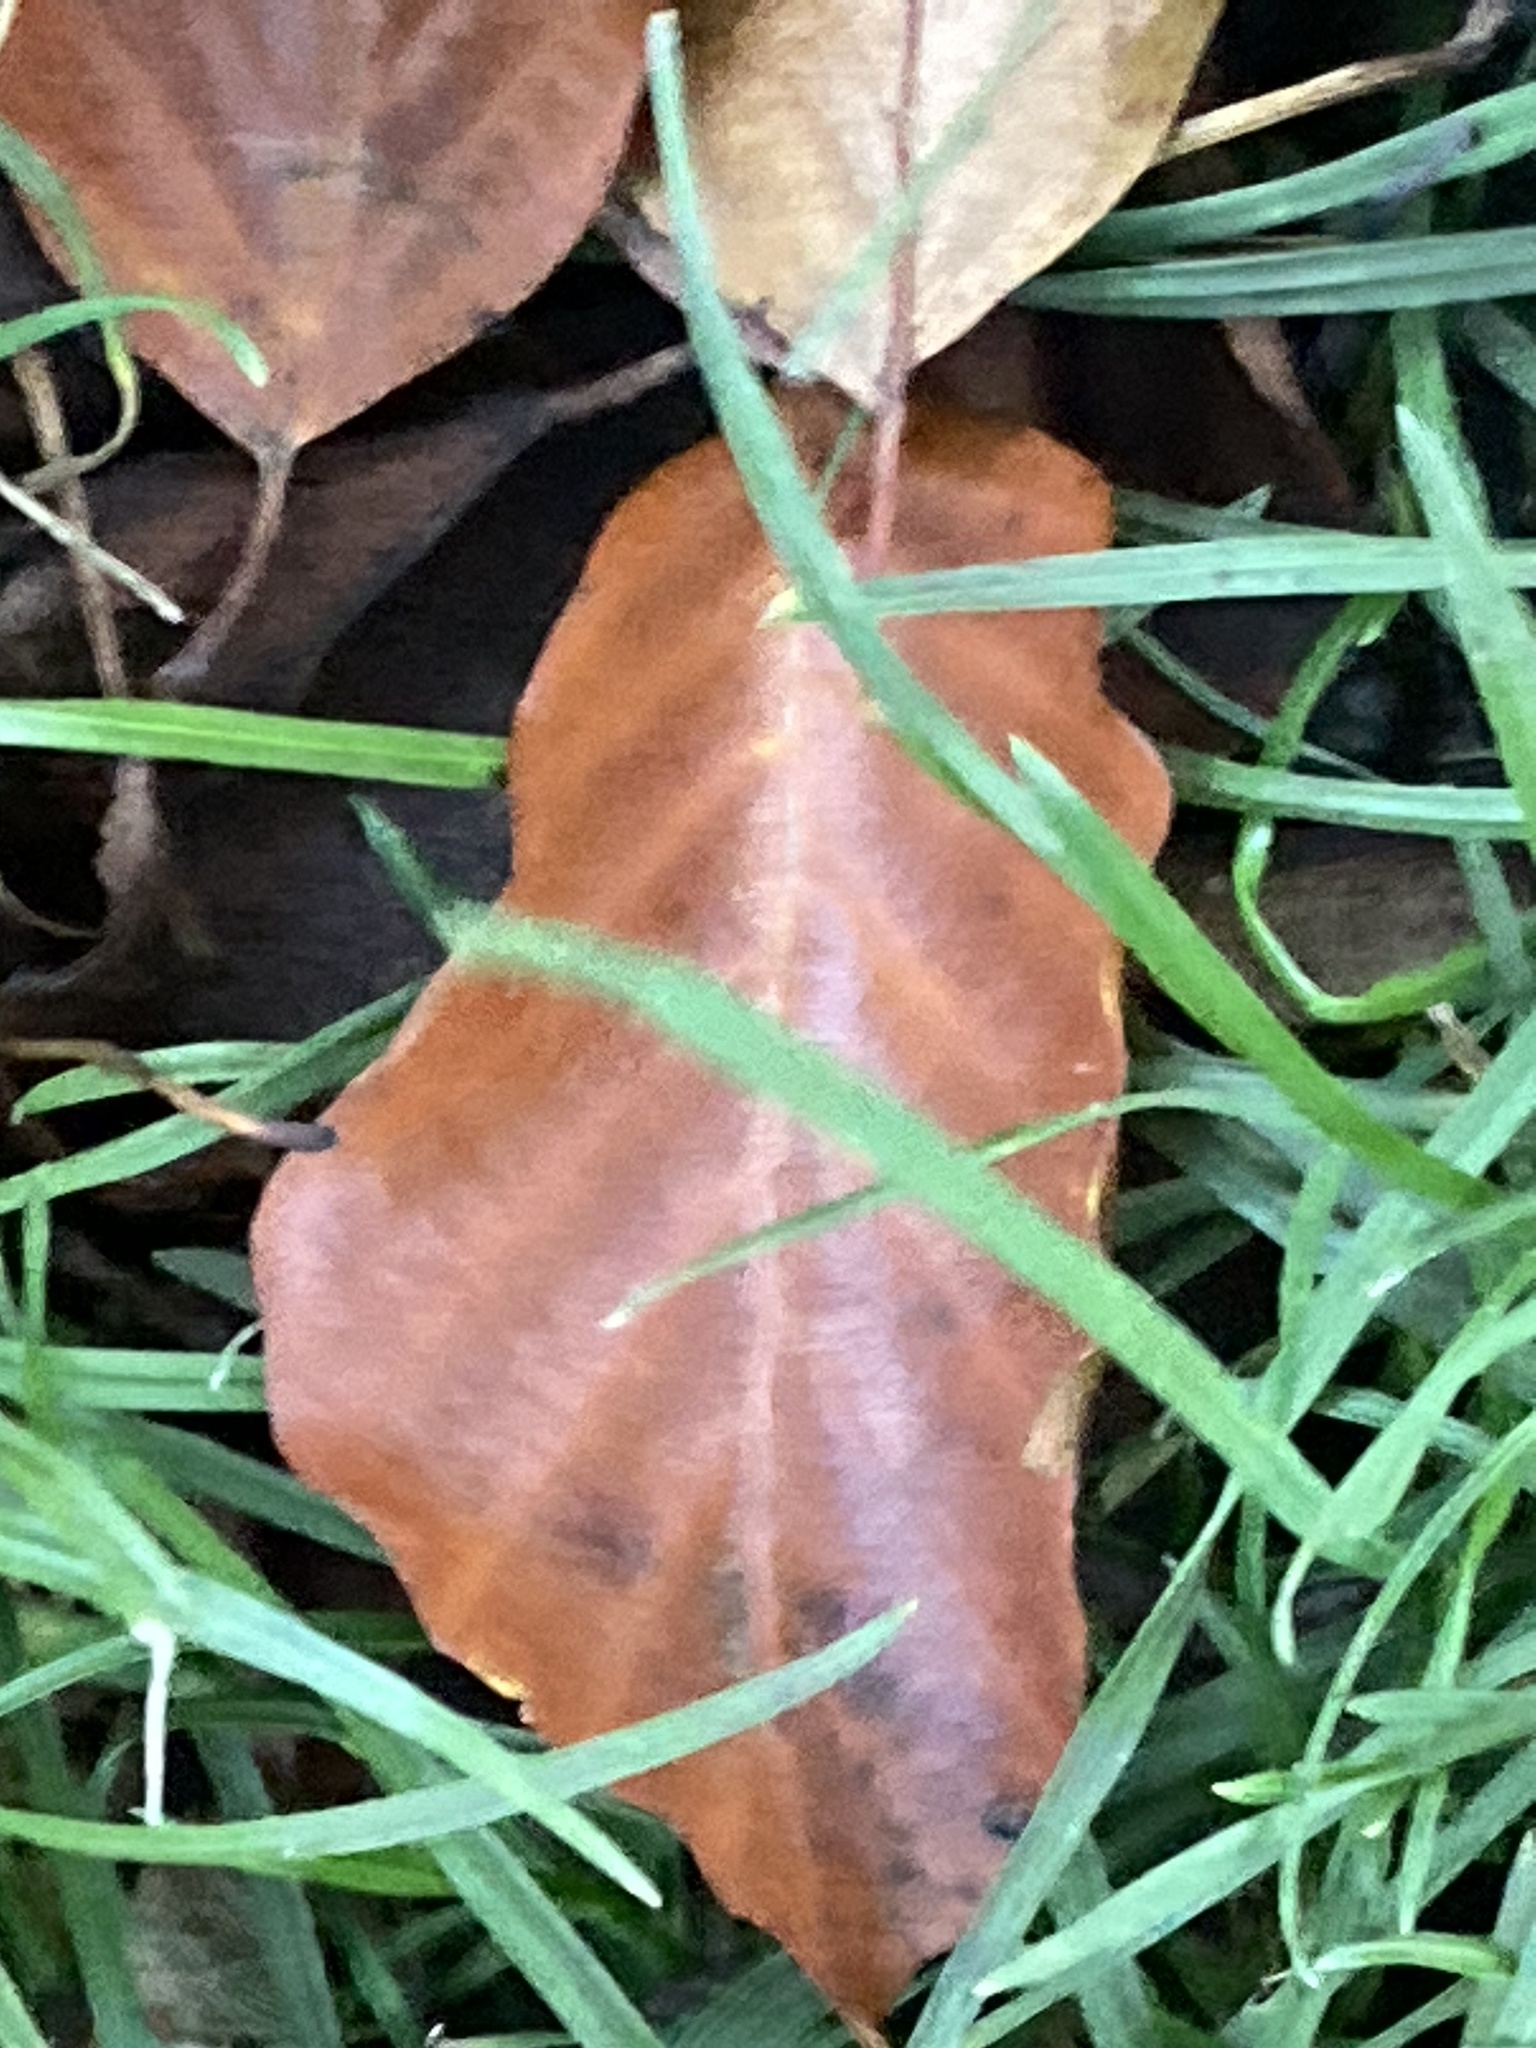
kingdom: Plantae
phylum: Tracheophyta
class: Magnoliopsida
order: Fagales
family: Fagaceae
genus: Fagus
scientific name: Fagus sylvatica
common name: Beech
